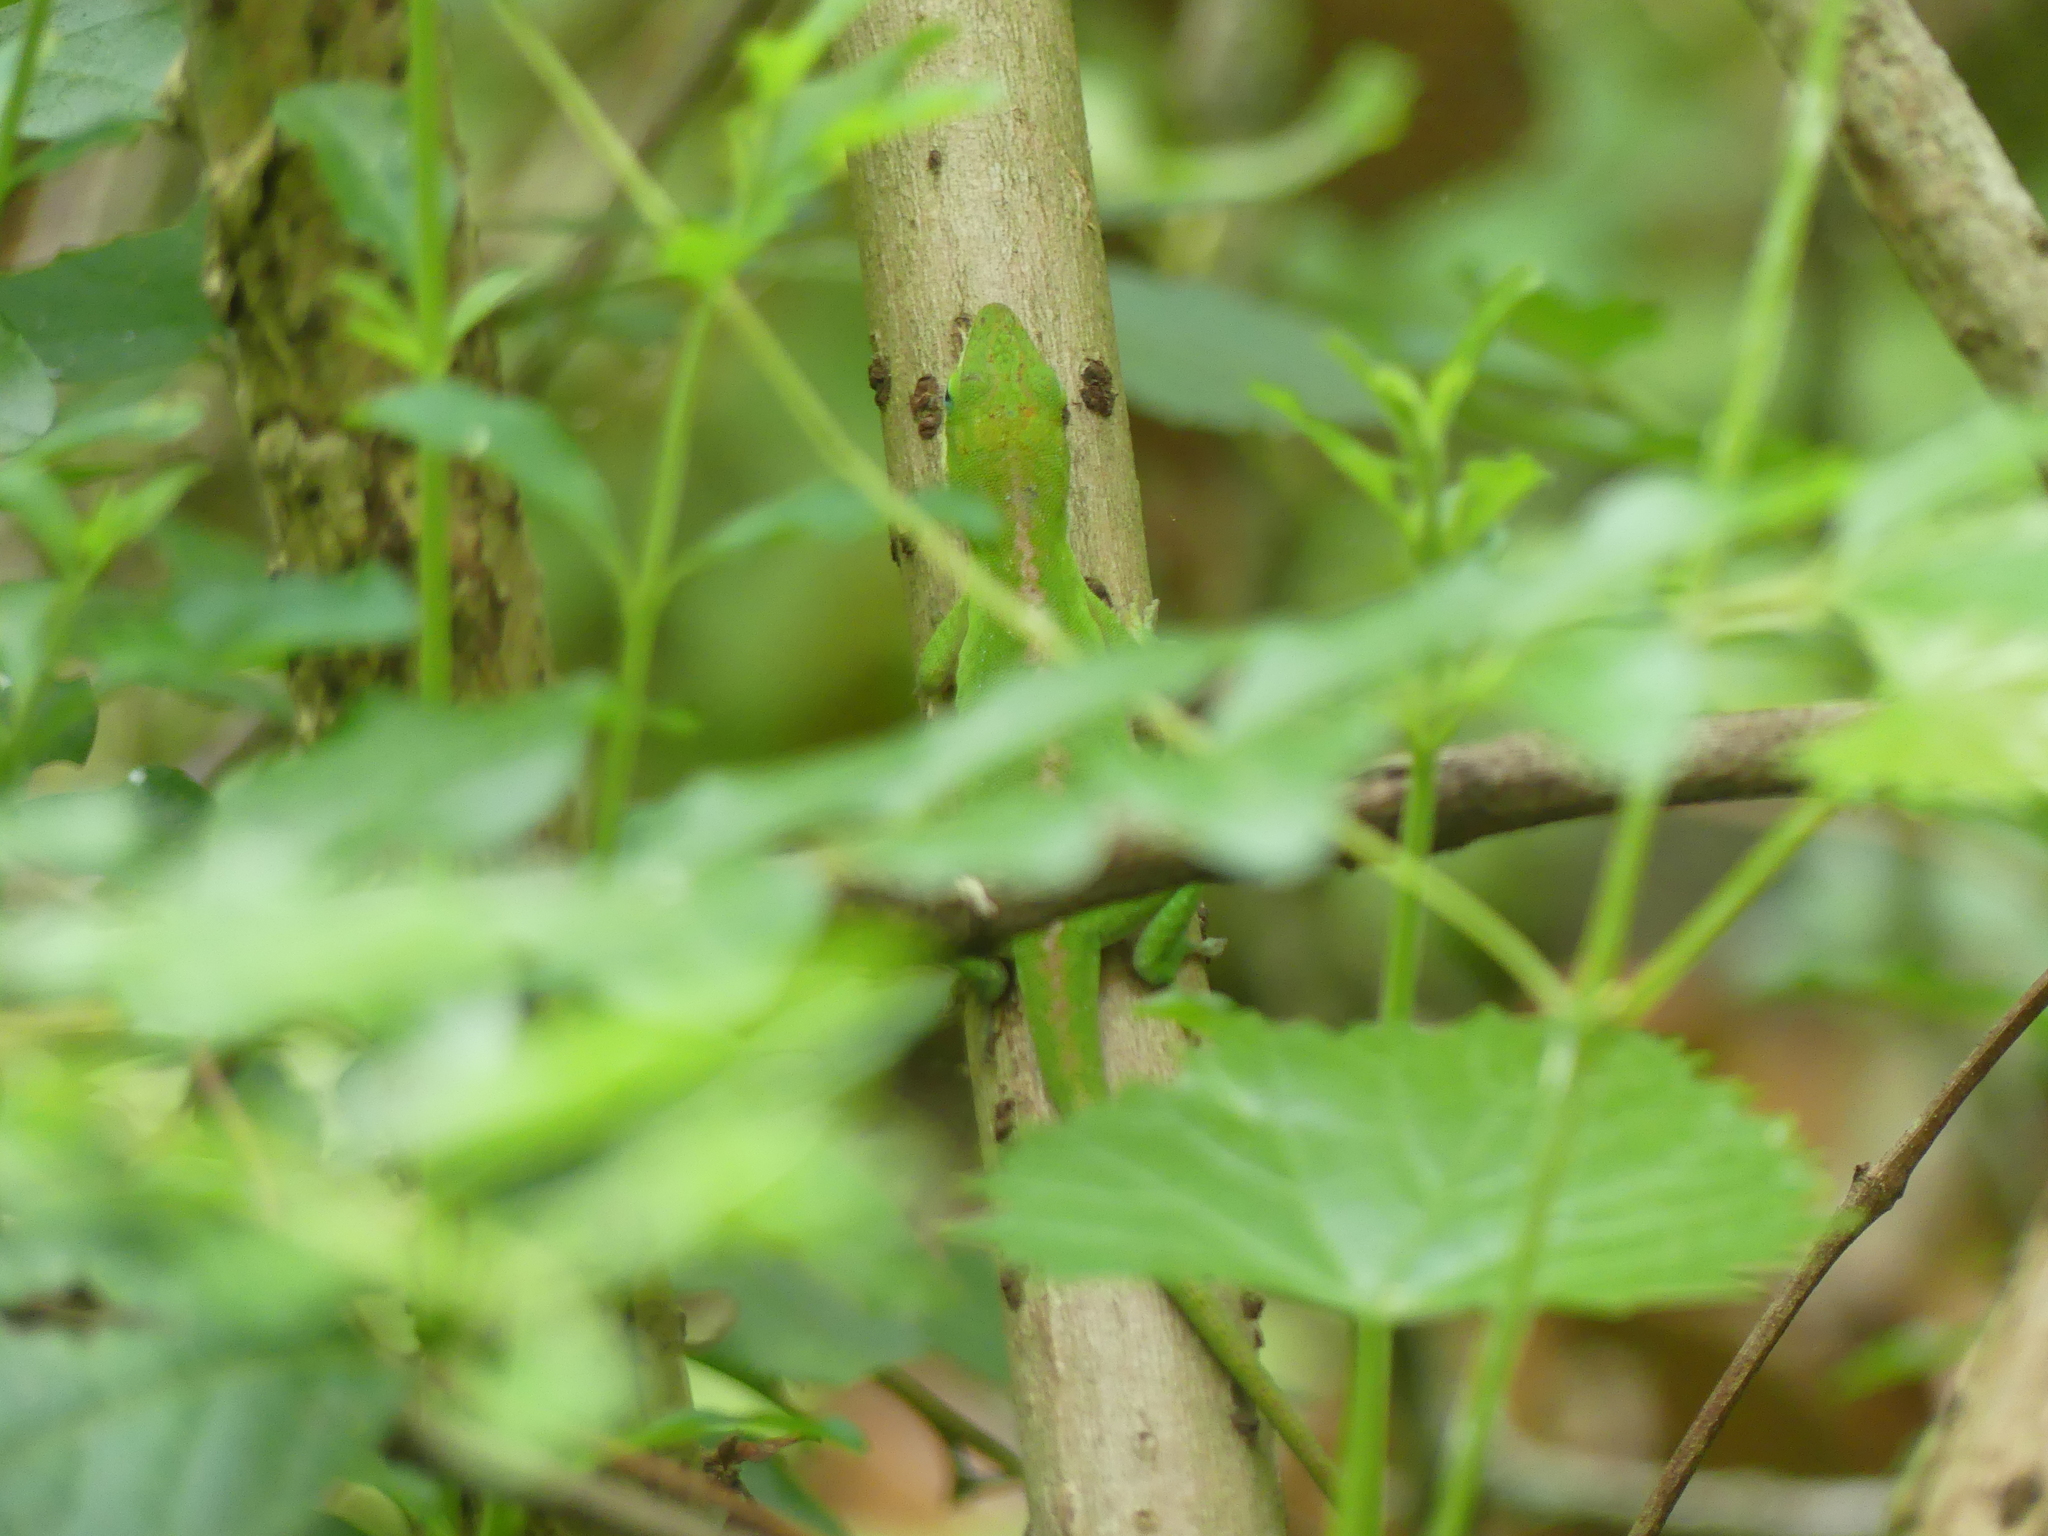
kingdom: Animalia
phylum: Chordata
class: Squamata
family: Dactyloidae
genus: Anolis
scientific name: Anolis carolinensis
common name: Green anole
